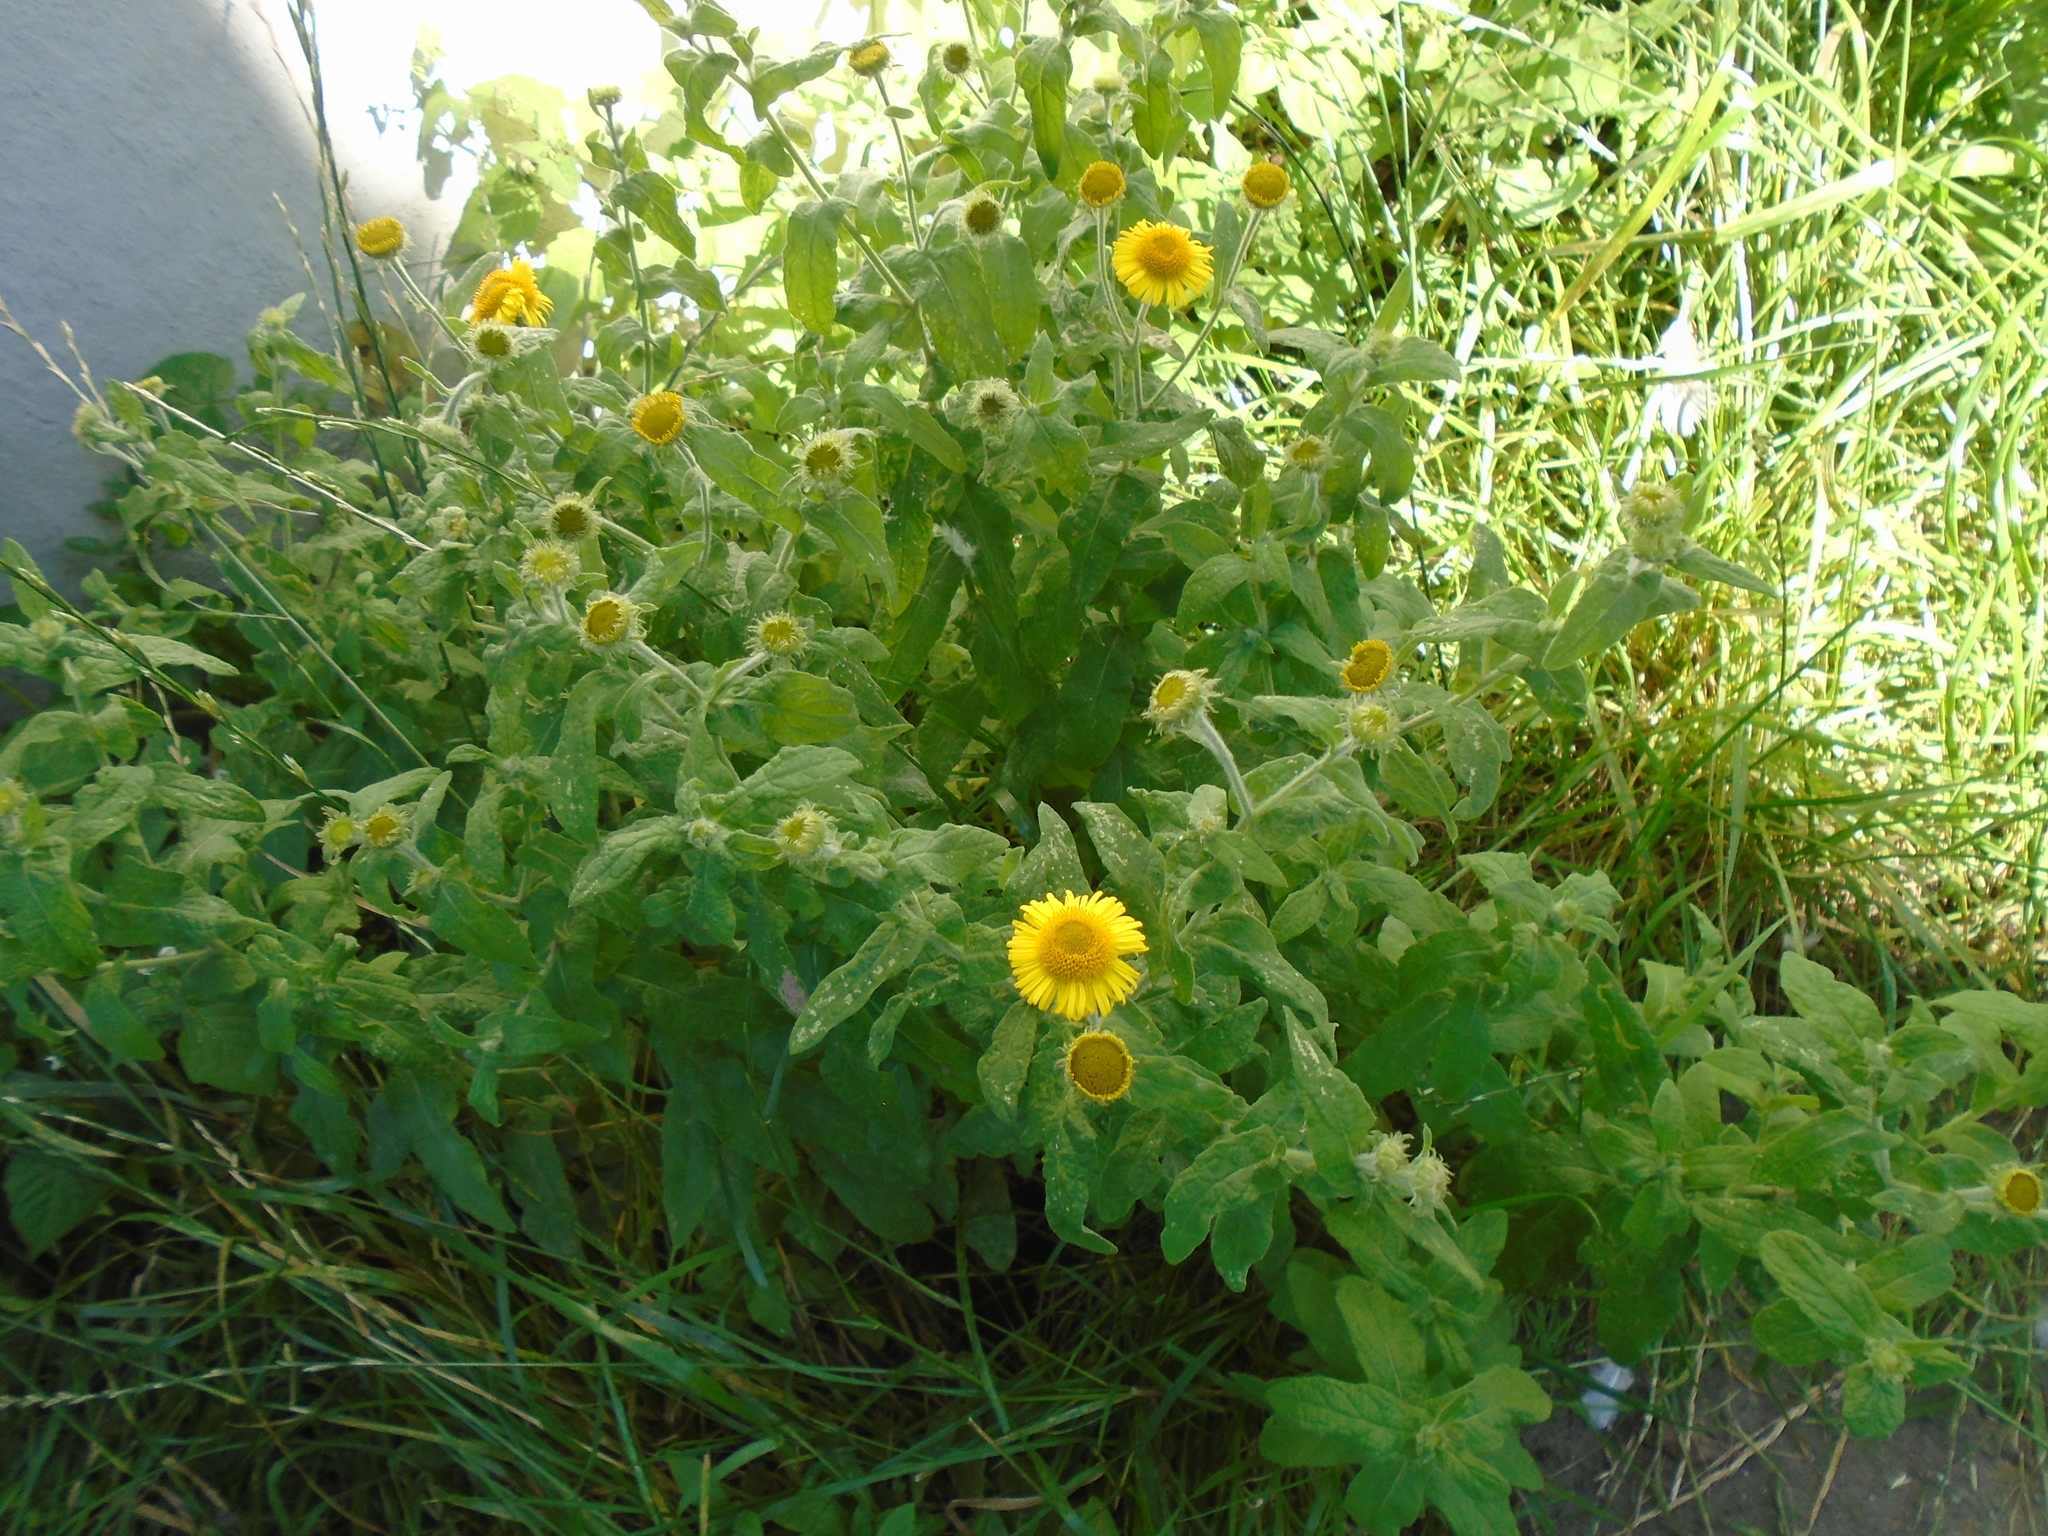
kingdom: Plantae
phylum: Tracheophyta
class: Magnoliopsida
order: Asterales
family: Asteraceae
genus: Pulicaria
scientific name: Pulicaria dysenterica
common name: Common fleabane
